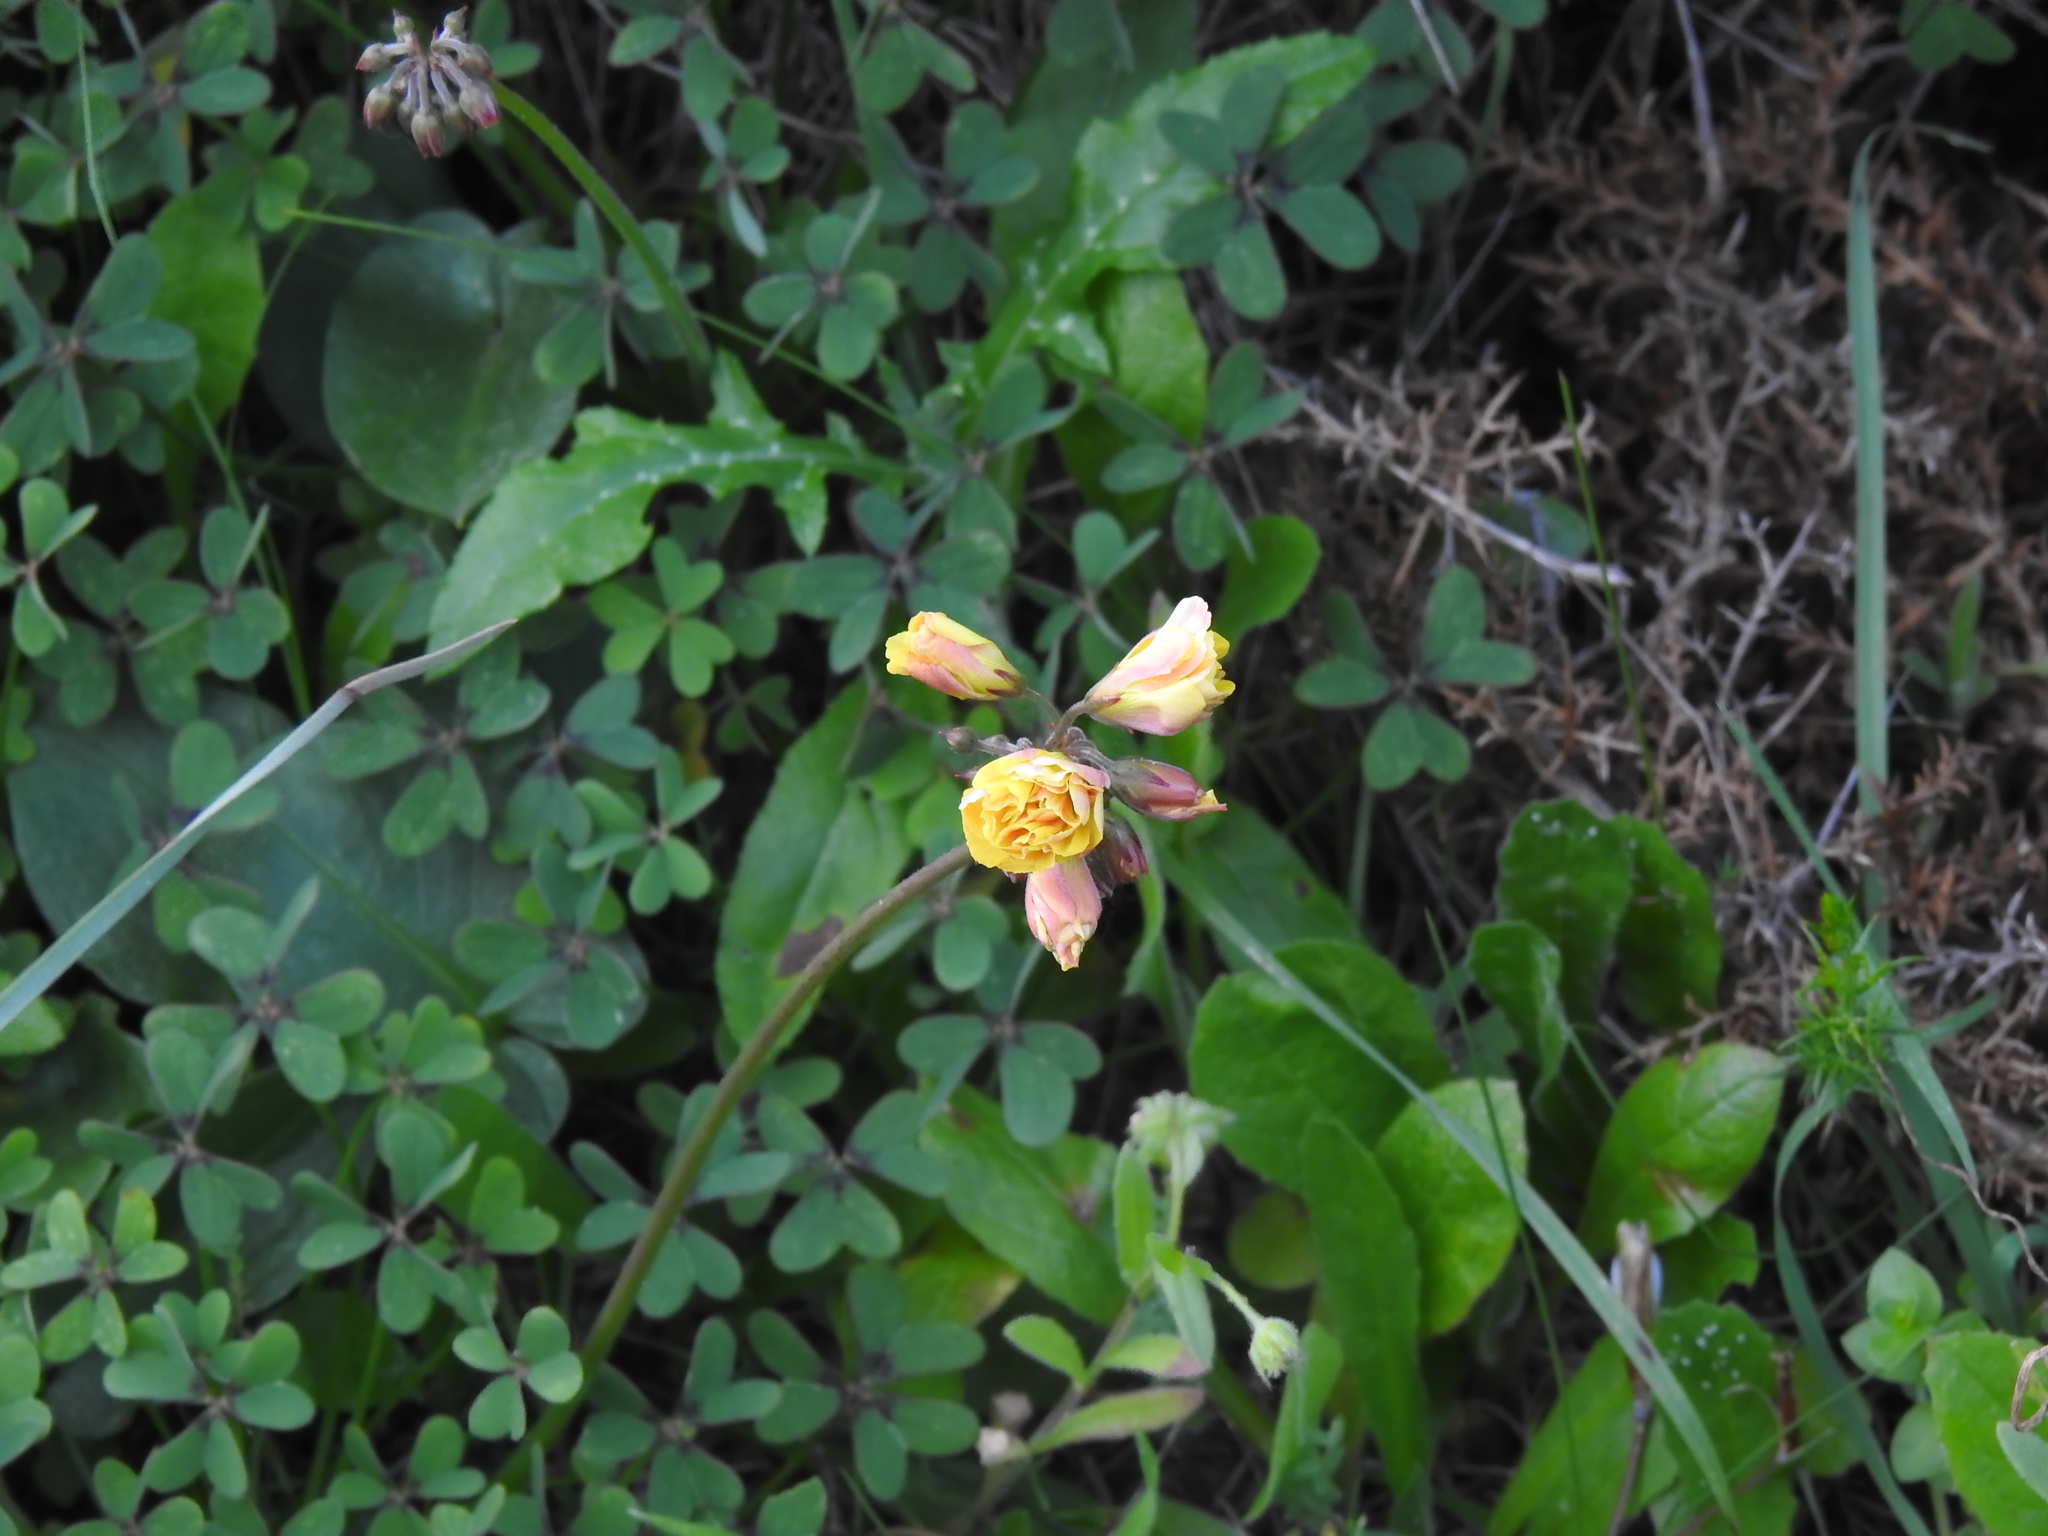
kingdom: Plantae
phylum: Tracheophyta
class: Magnoliopsida
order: Oxalidales
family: Oxalidaceae
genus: Oxalis
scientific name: Oxalis pes-caprae
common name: Bermuda-buttercup
